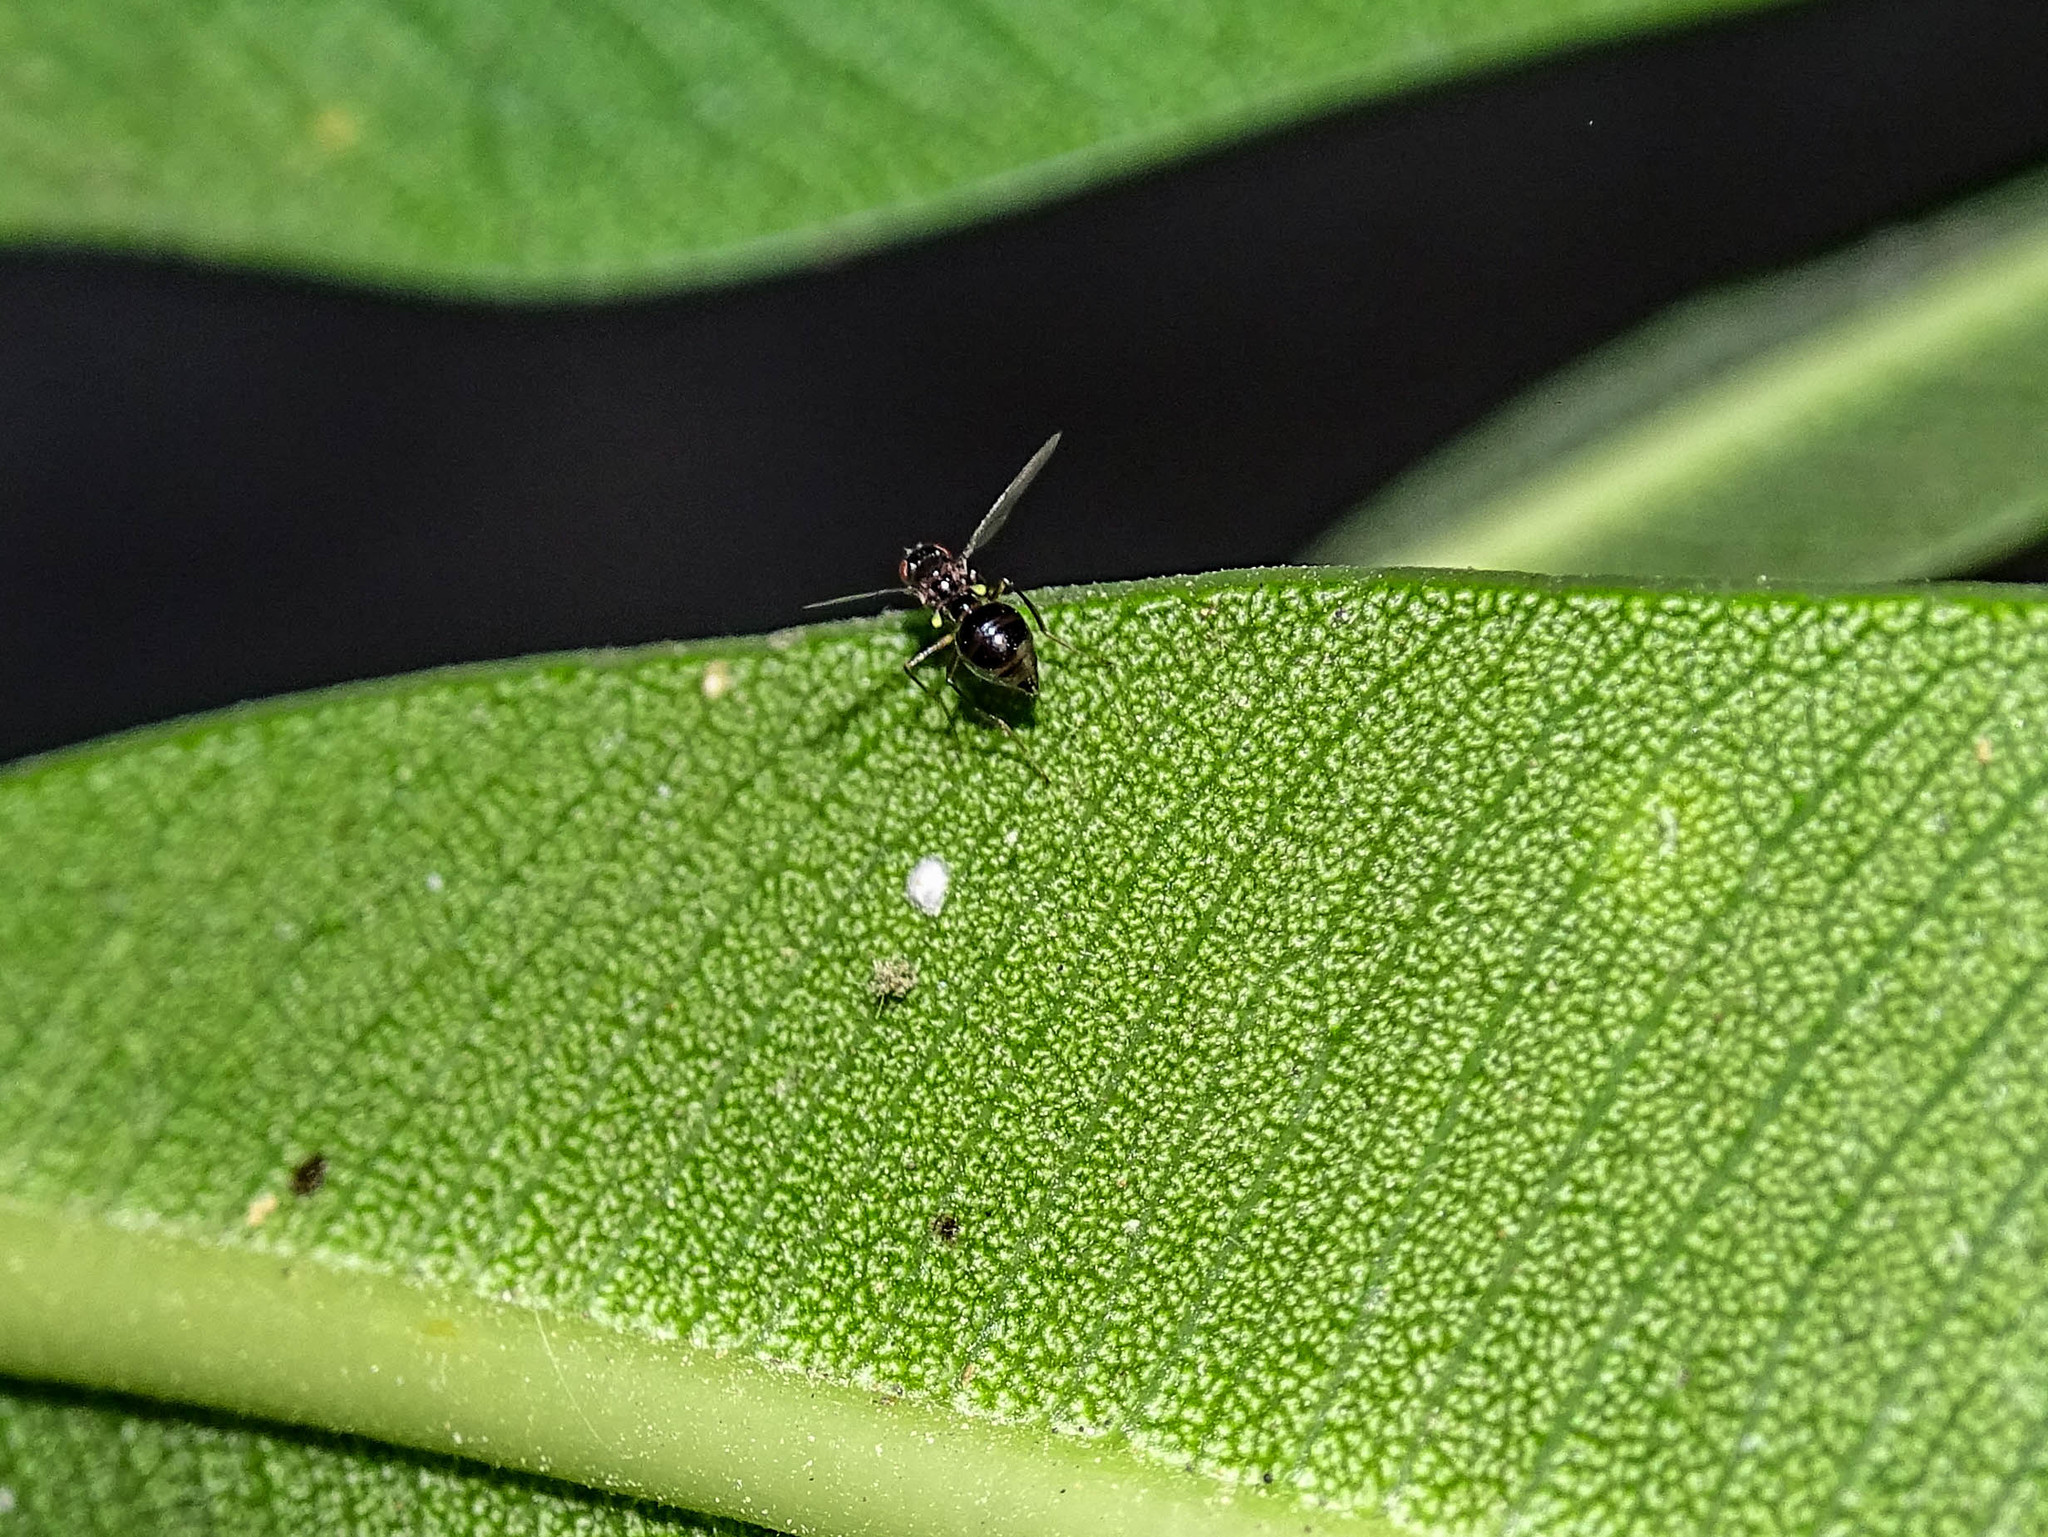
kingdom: Animalia
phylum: Arthropoda
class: Insecta
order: Diptera
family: Sepsidae
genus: Sepsis
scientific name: Sepsis lateralis
